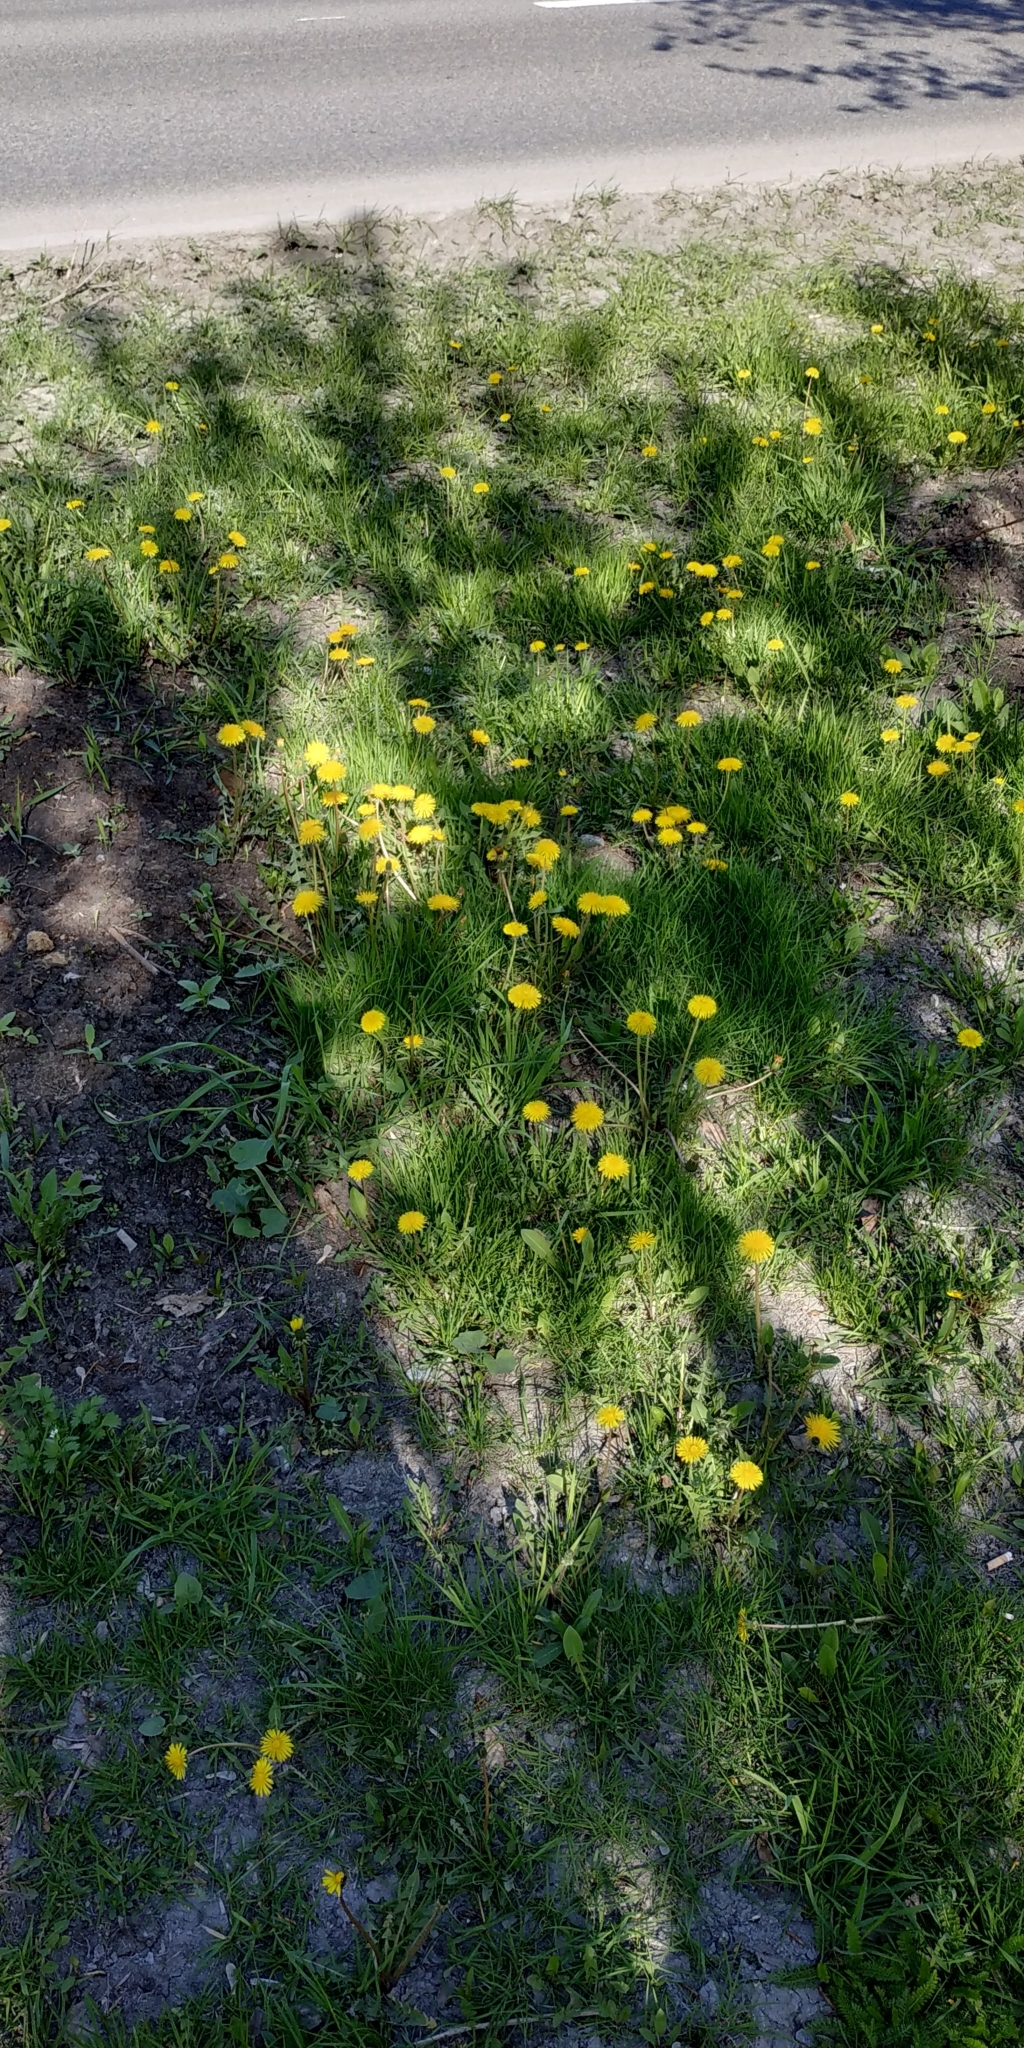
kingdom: Plantae
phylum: Tracheophyta
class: Magnoliopsida
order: Asterales
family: Asteraceae
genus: Taraxacum
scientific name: Taraxacum officinale
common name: Common dandelion
